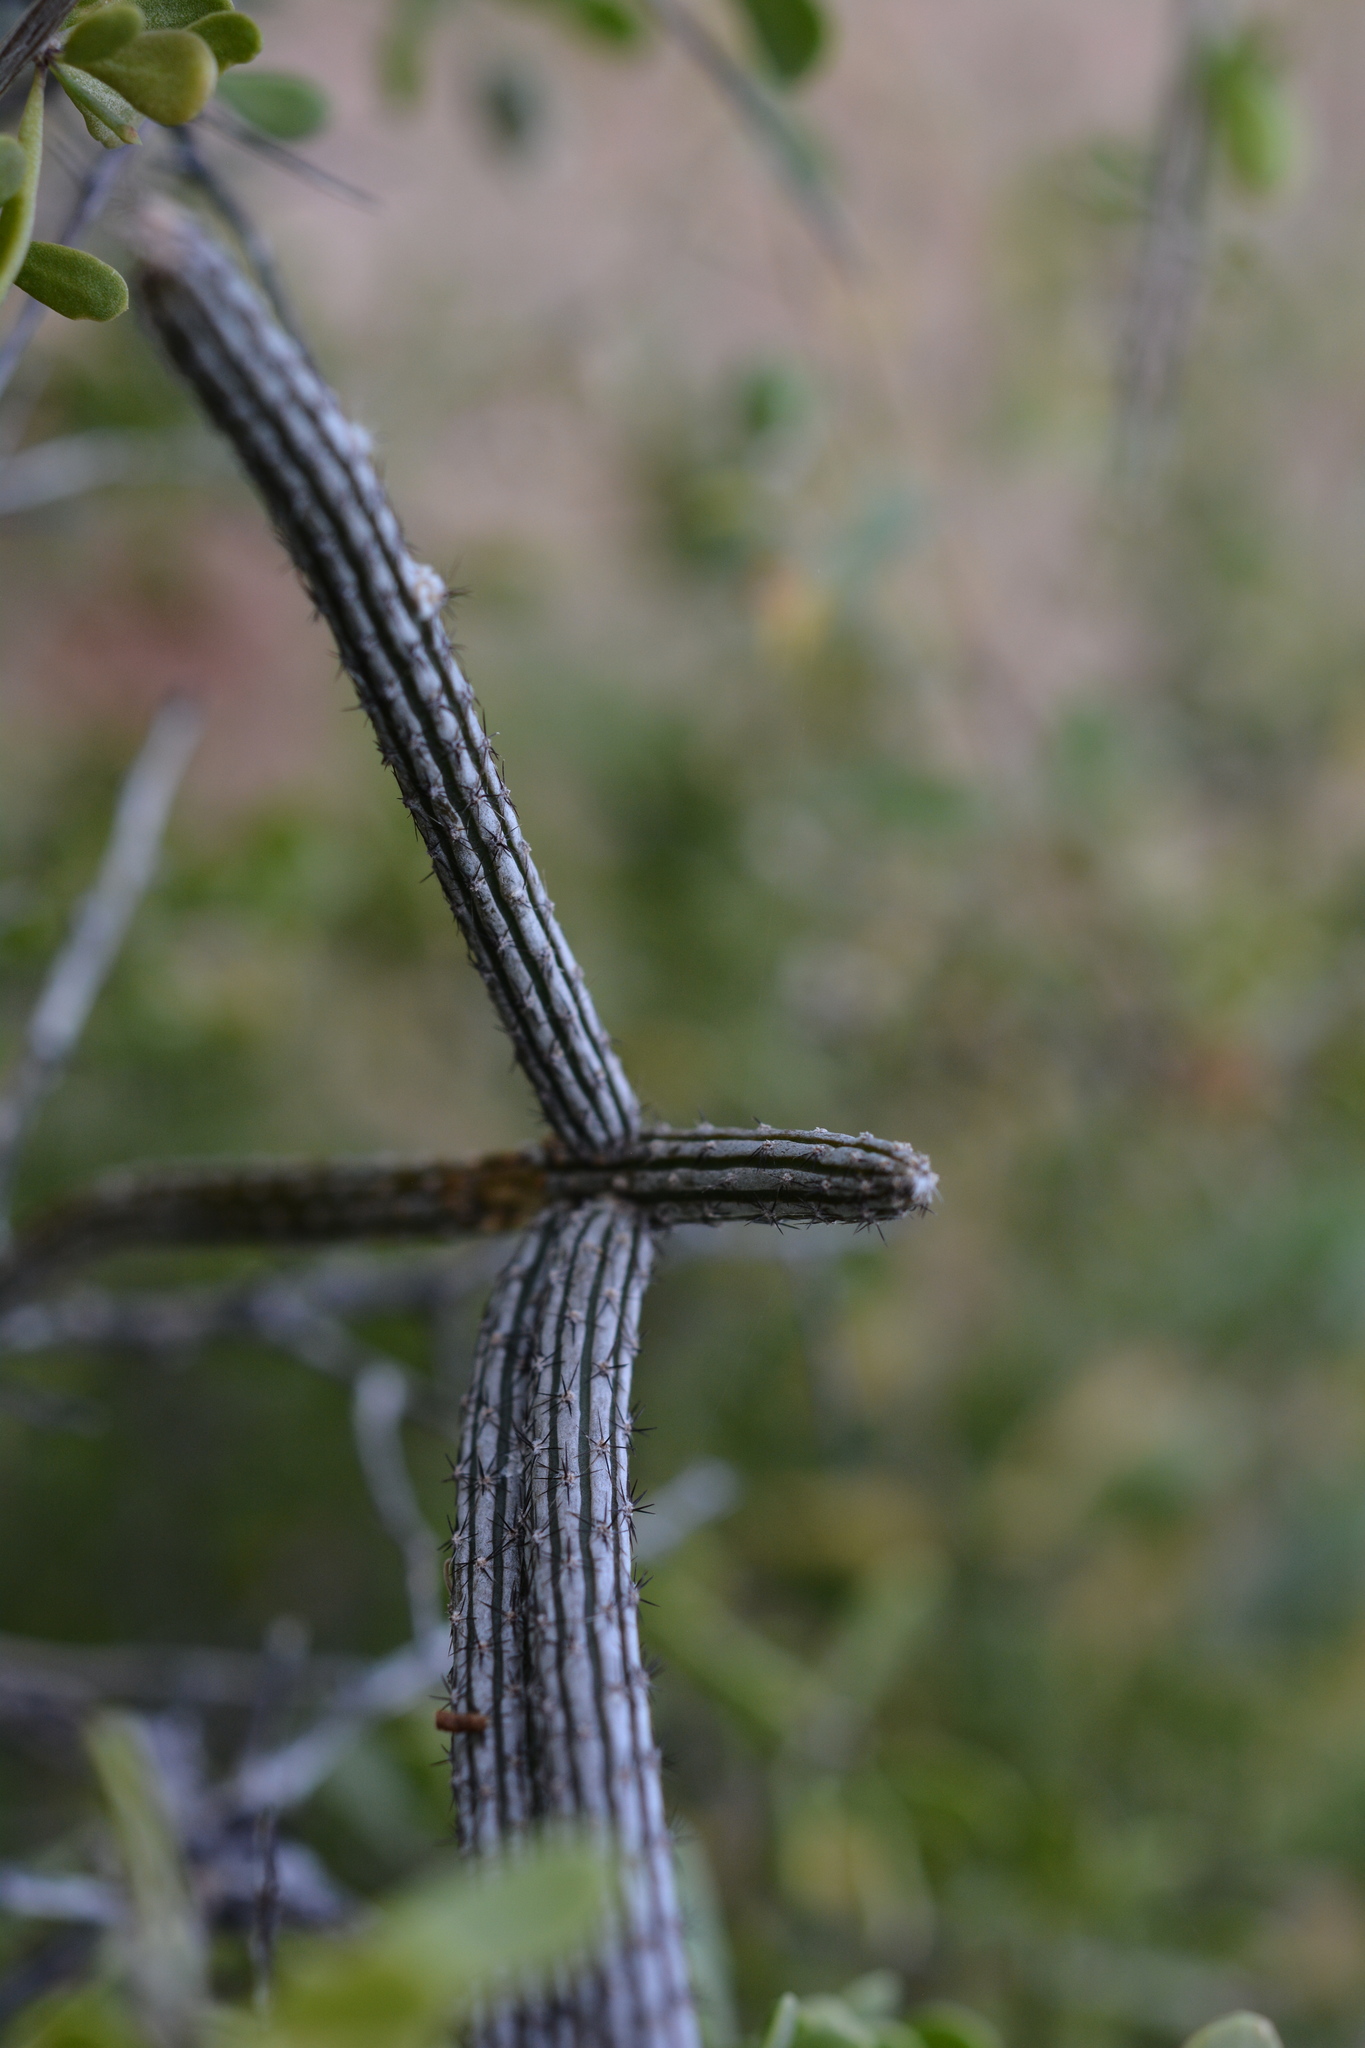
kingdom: Plantae
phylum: Tracheophyta
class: Magnoliopsida
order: Caryophyllales
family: Cactaceae
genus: Peniocereus
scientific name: Peniocereus striatus
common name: Gearstem cactus
